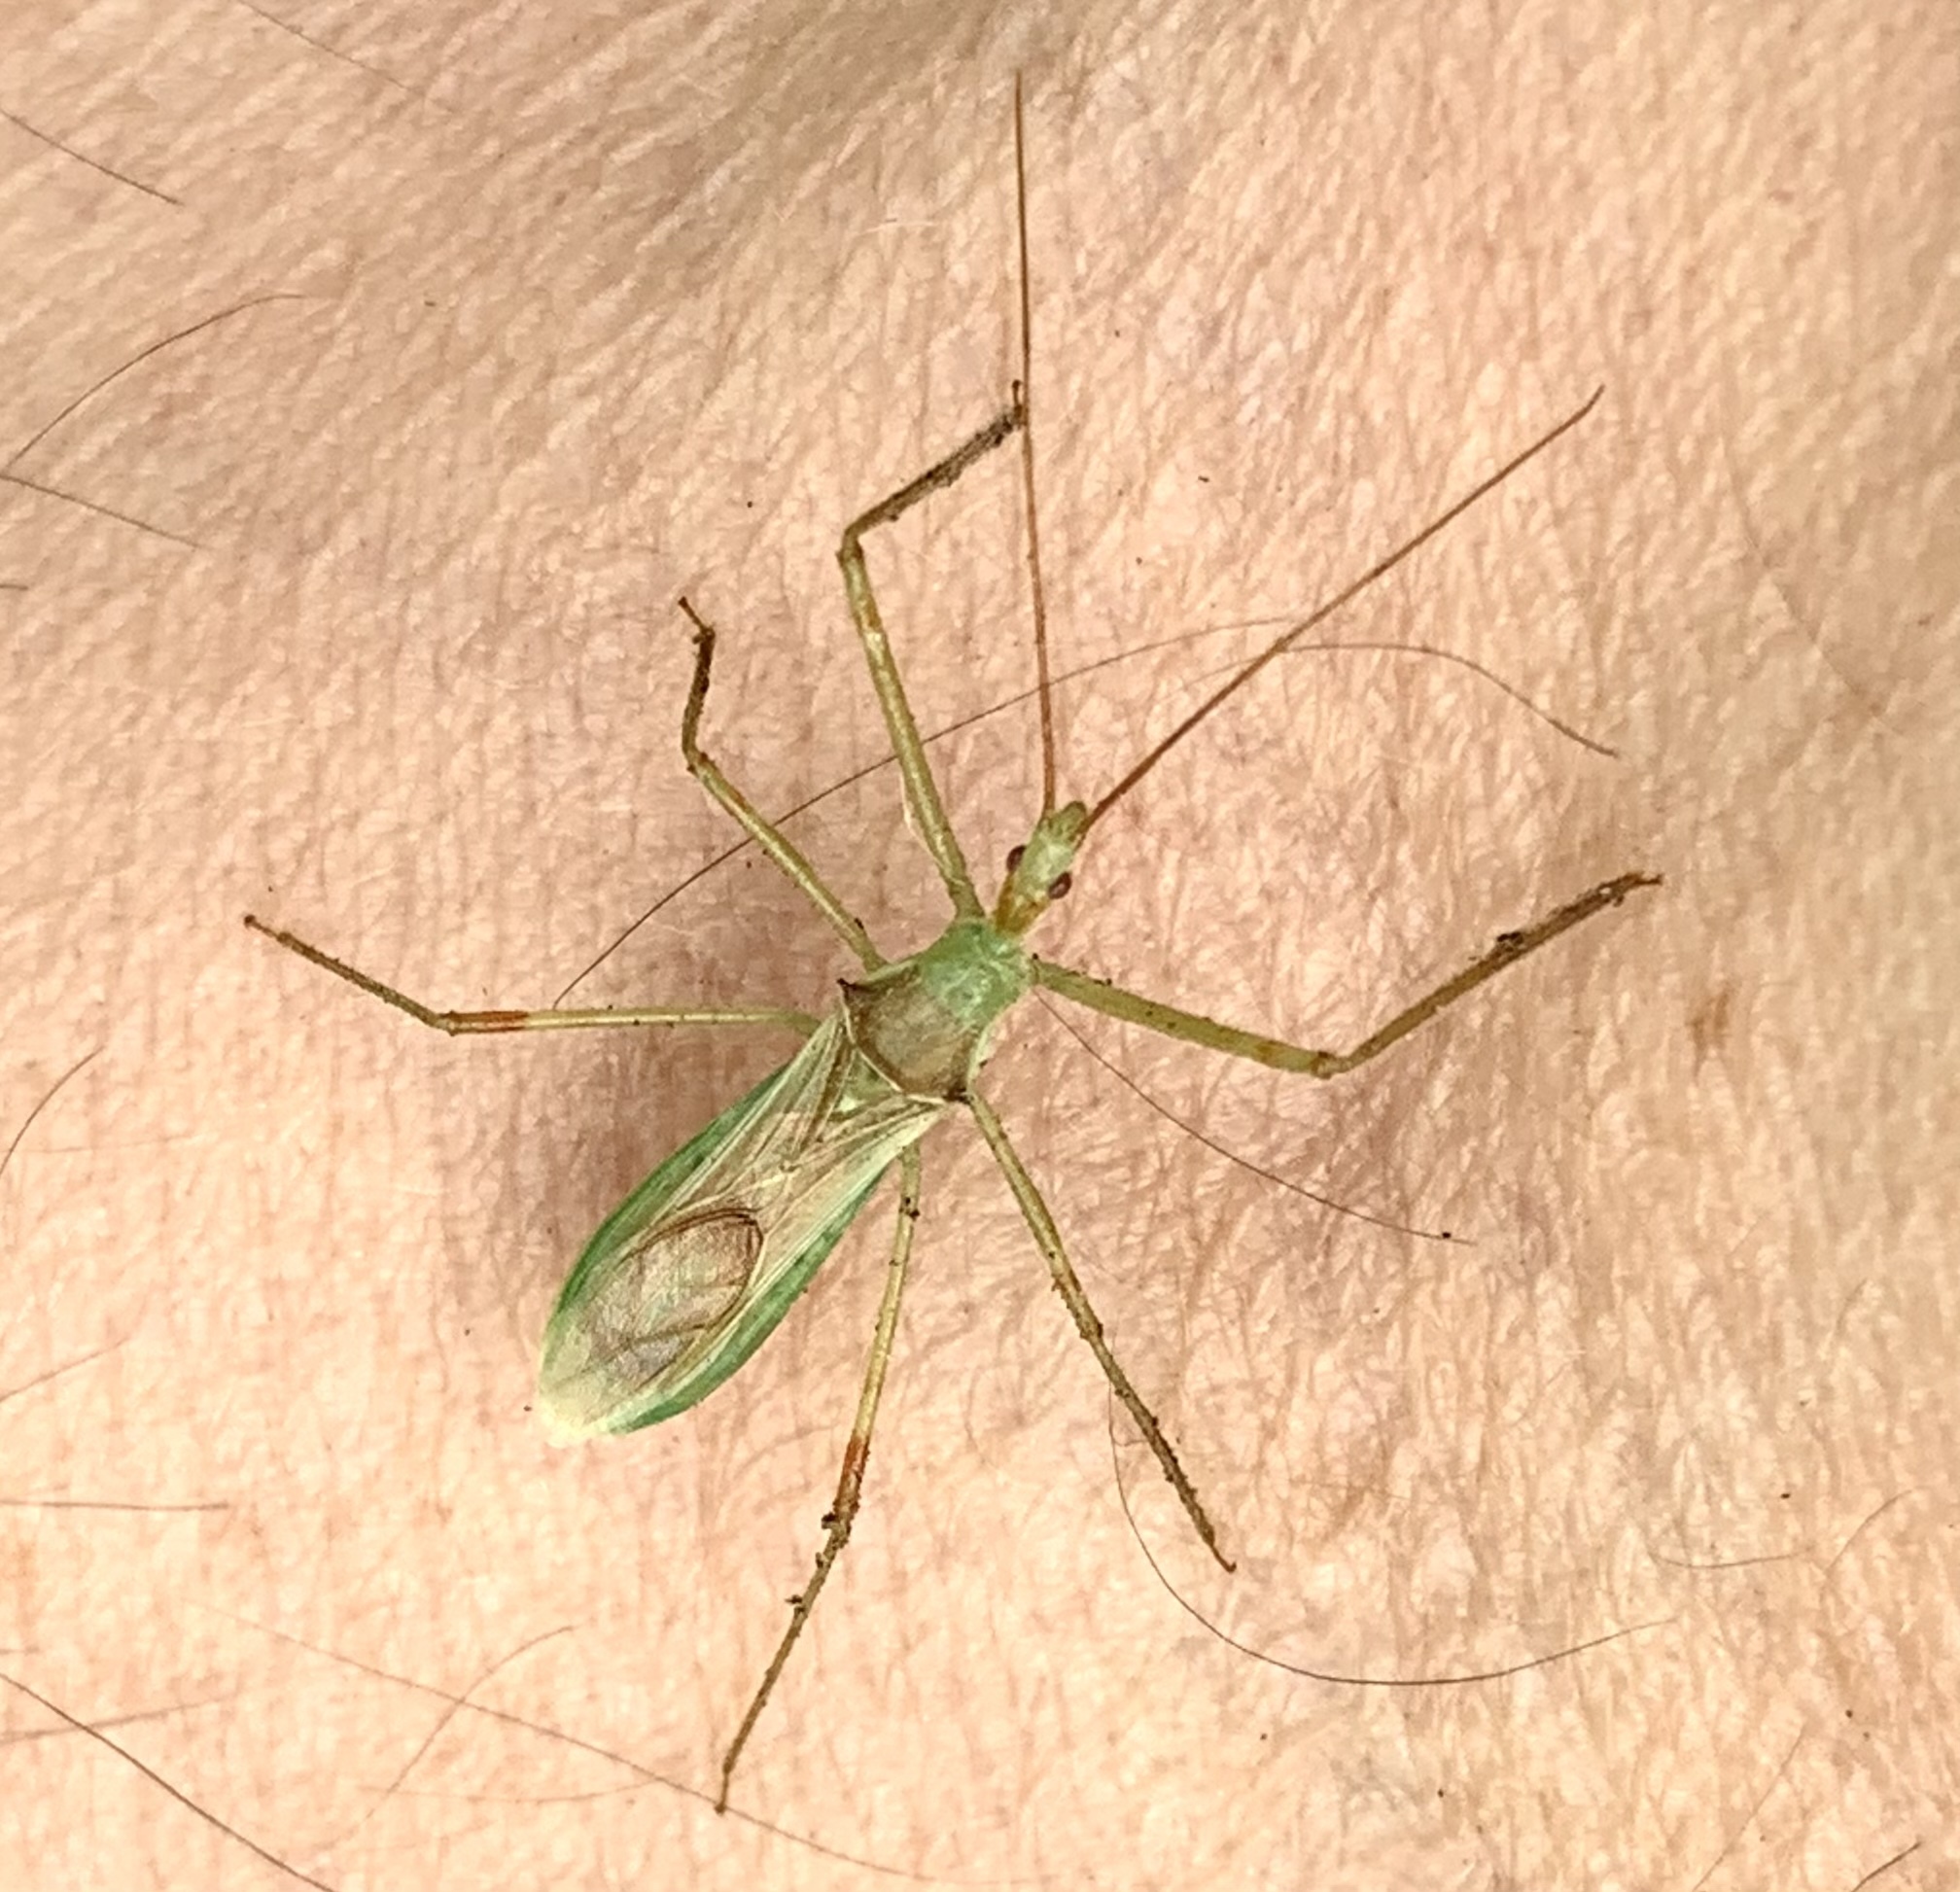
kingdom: Animalia
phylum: Arthropoda
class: Insecta
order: Hemiptera
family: Reduviidae
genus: Zelus
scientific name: Zelus luridus
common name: Pale green assassin bug
